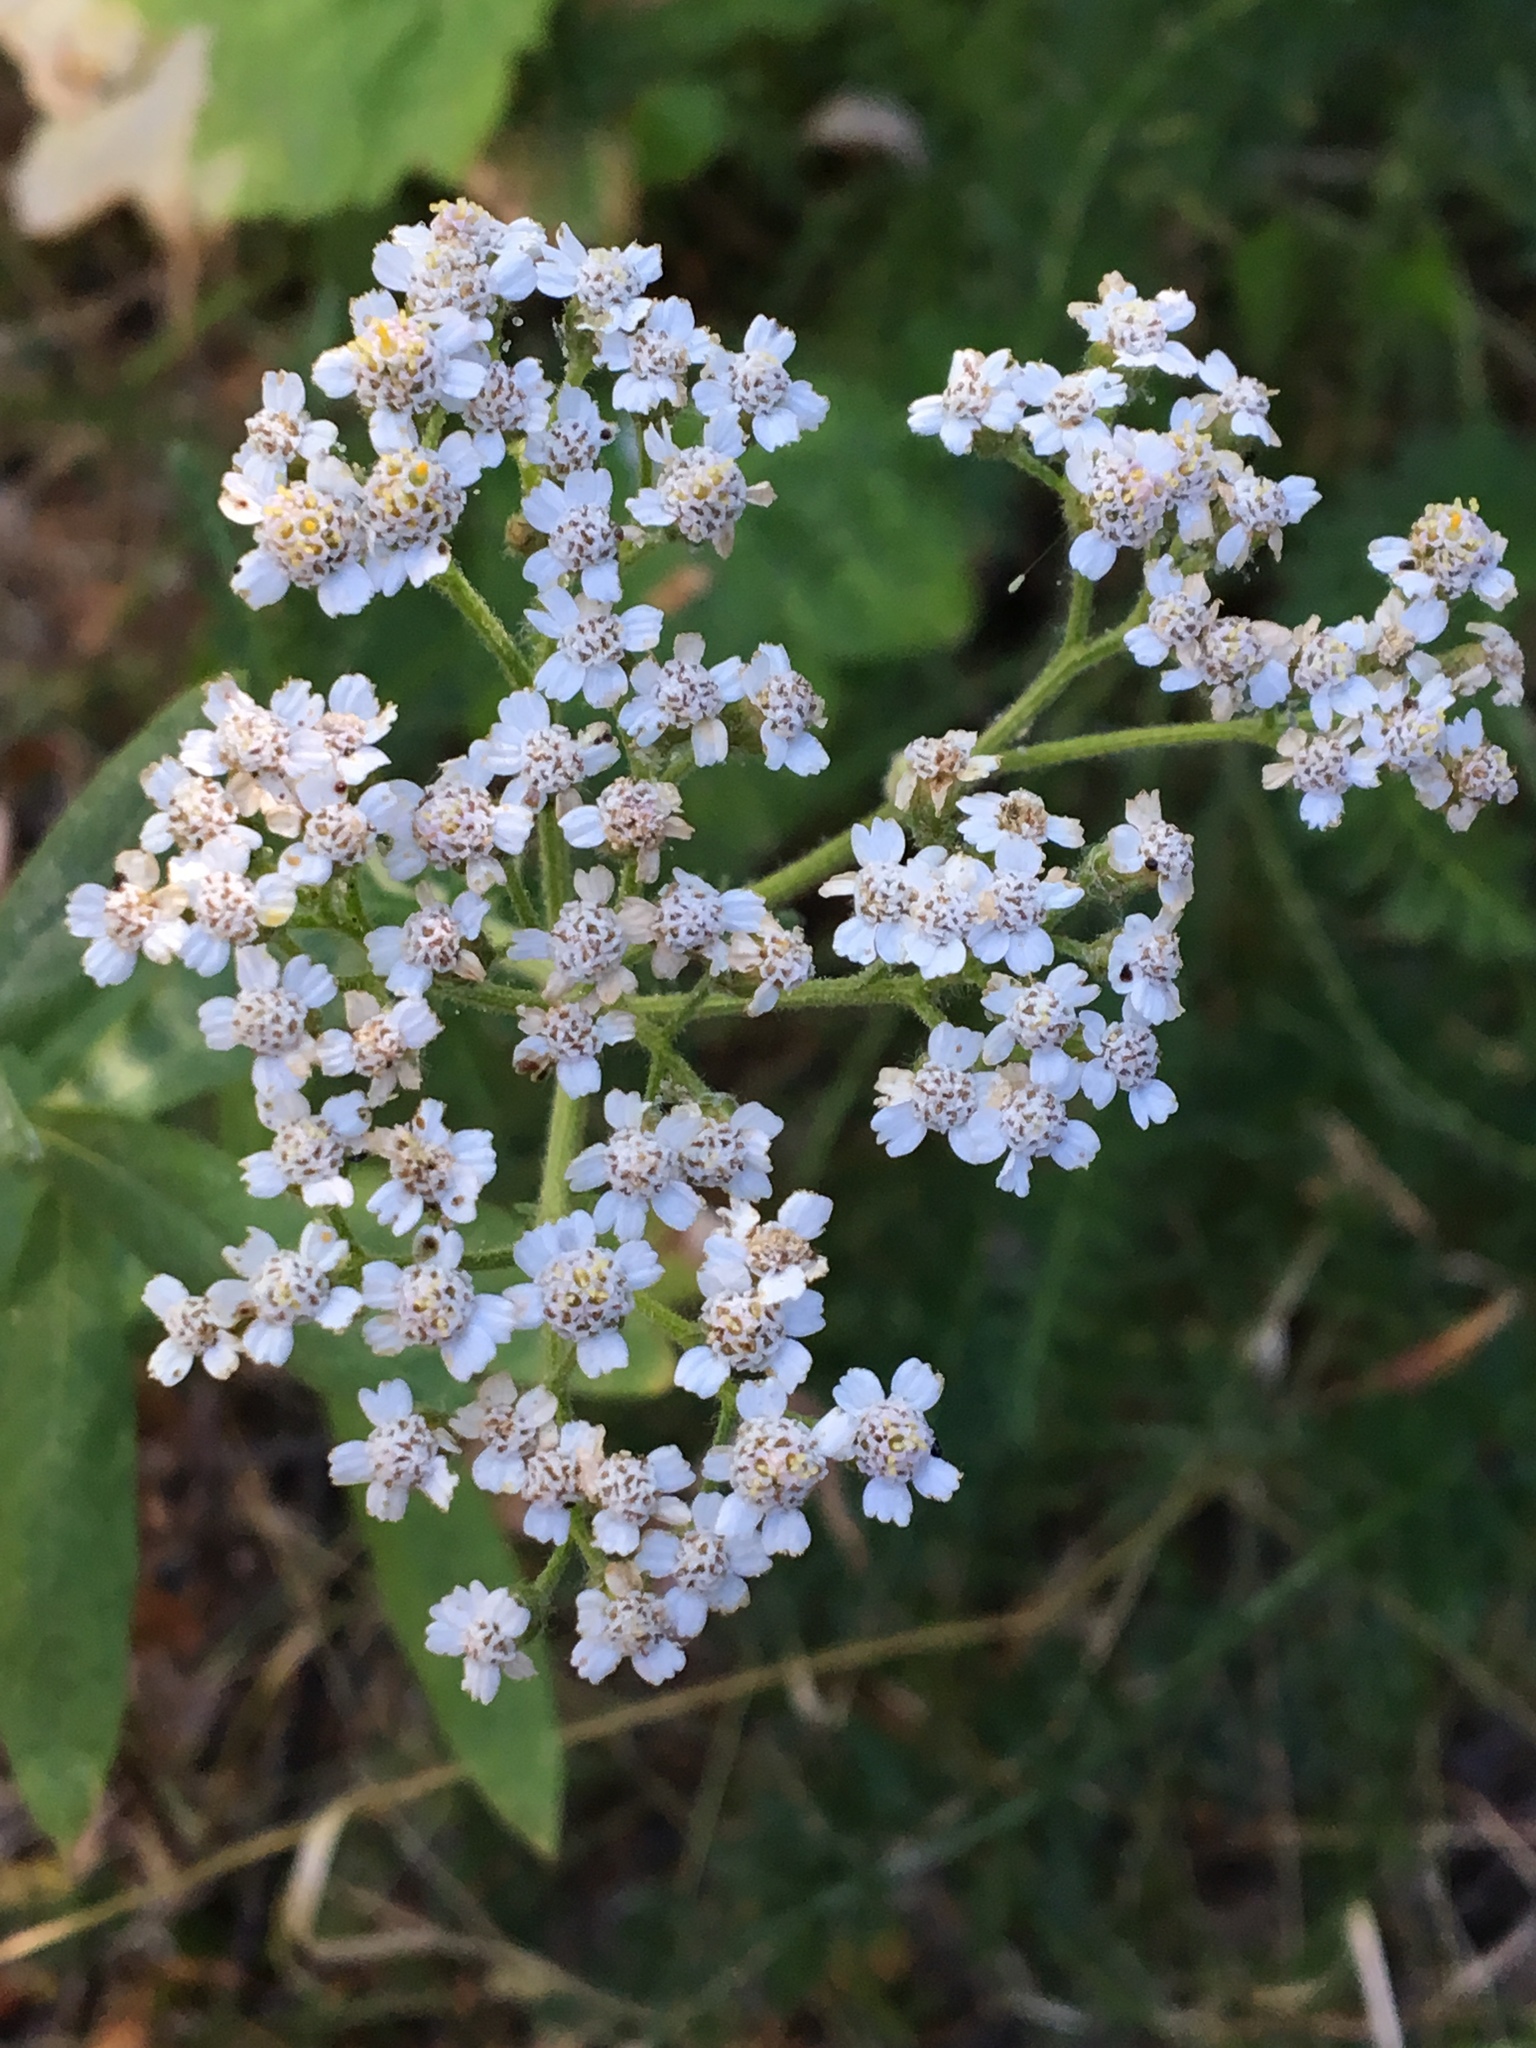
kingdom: Plantae
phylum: Tracheophyta
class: Magnoliopsida
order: Asterales
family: Asteraceae
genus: Achillea
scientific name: Achillea millefolium
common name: Yarrow
